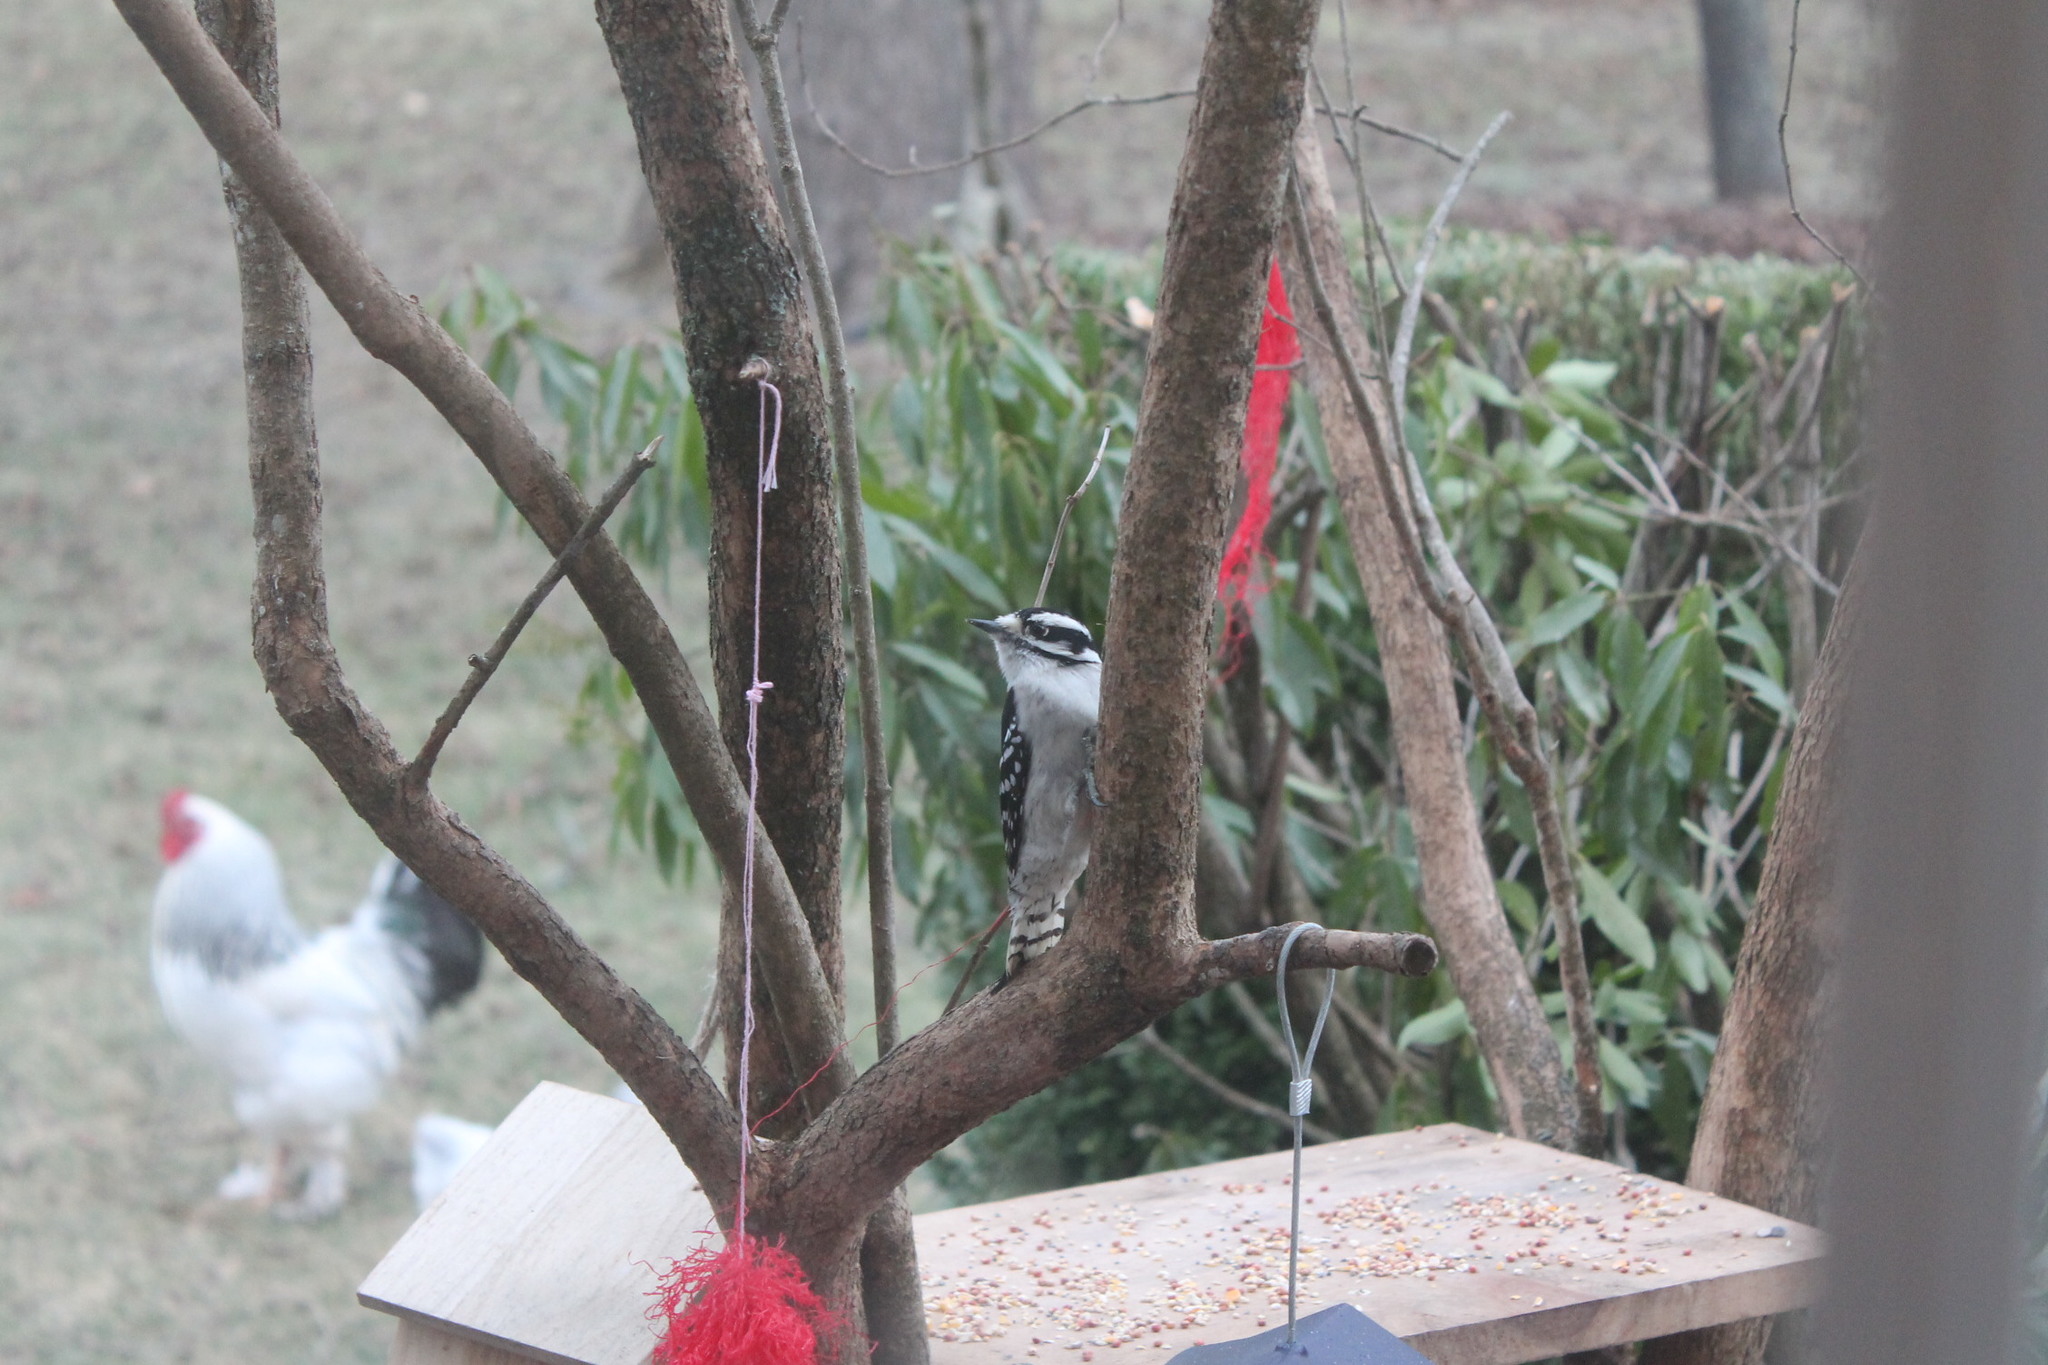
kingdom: Animalia
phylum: Chordata
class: Aves
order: Piciformes
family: Picidae
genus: Dryobates
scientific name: Dryobates pubescens
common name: Downy woodpecker
